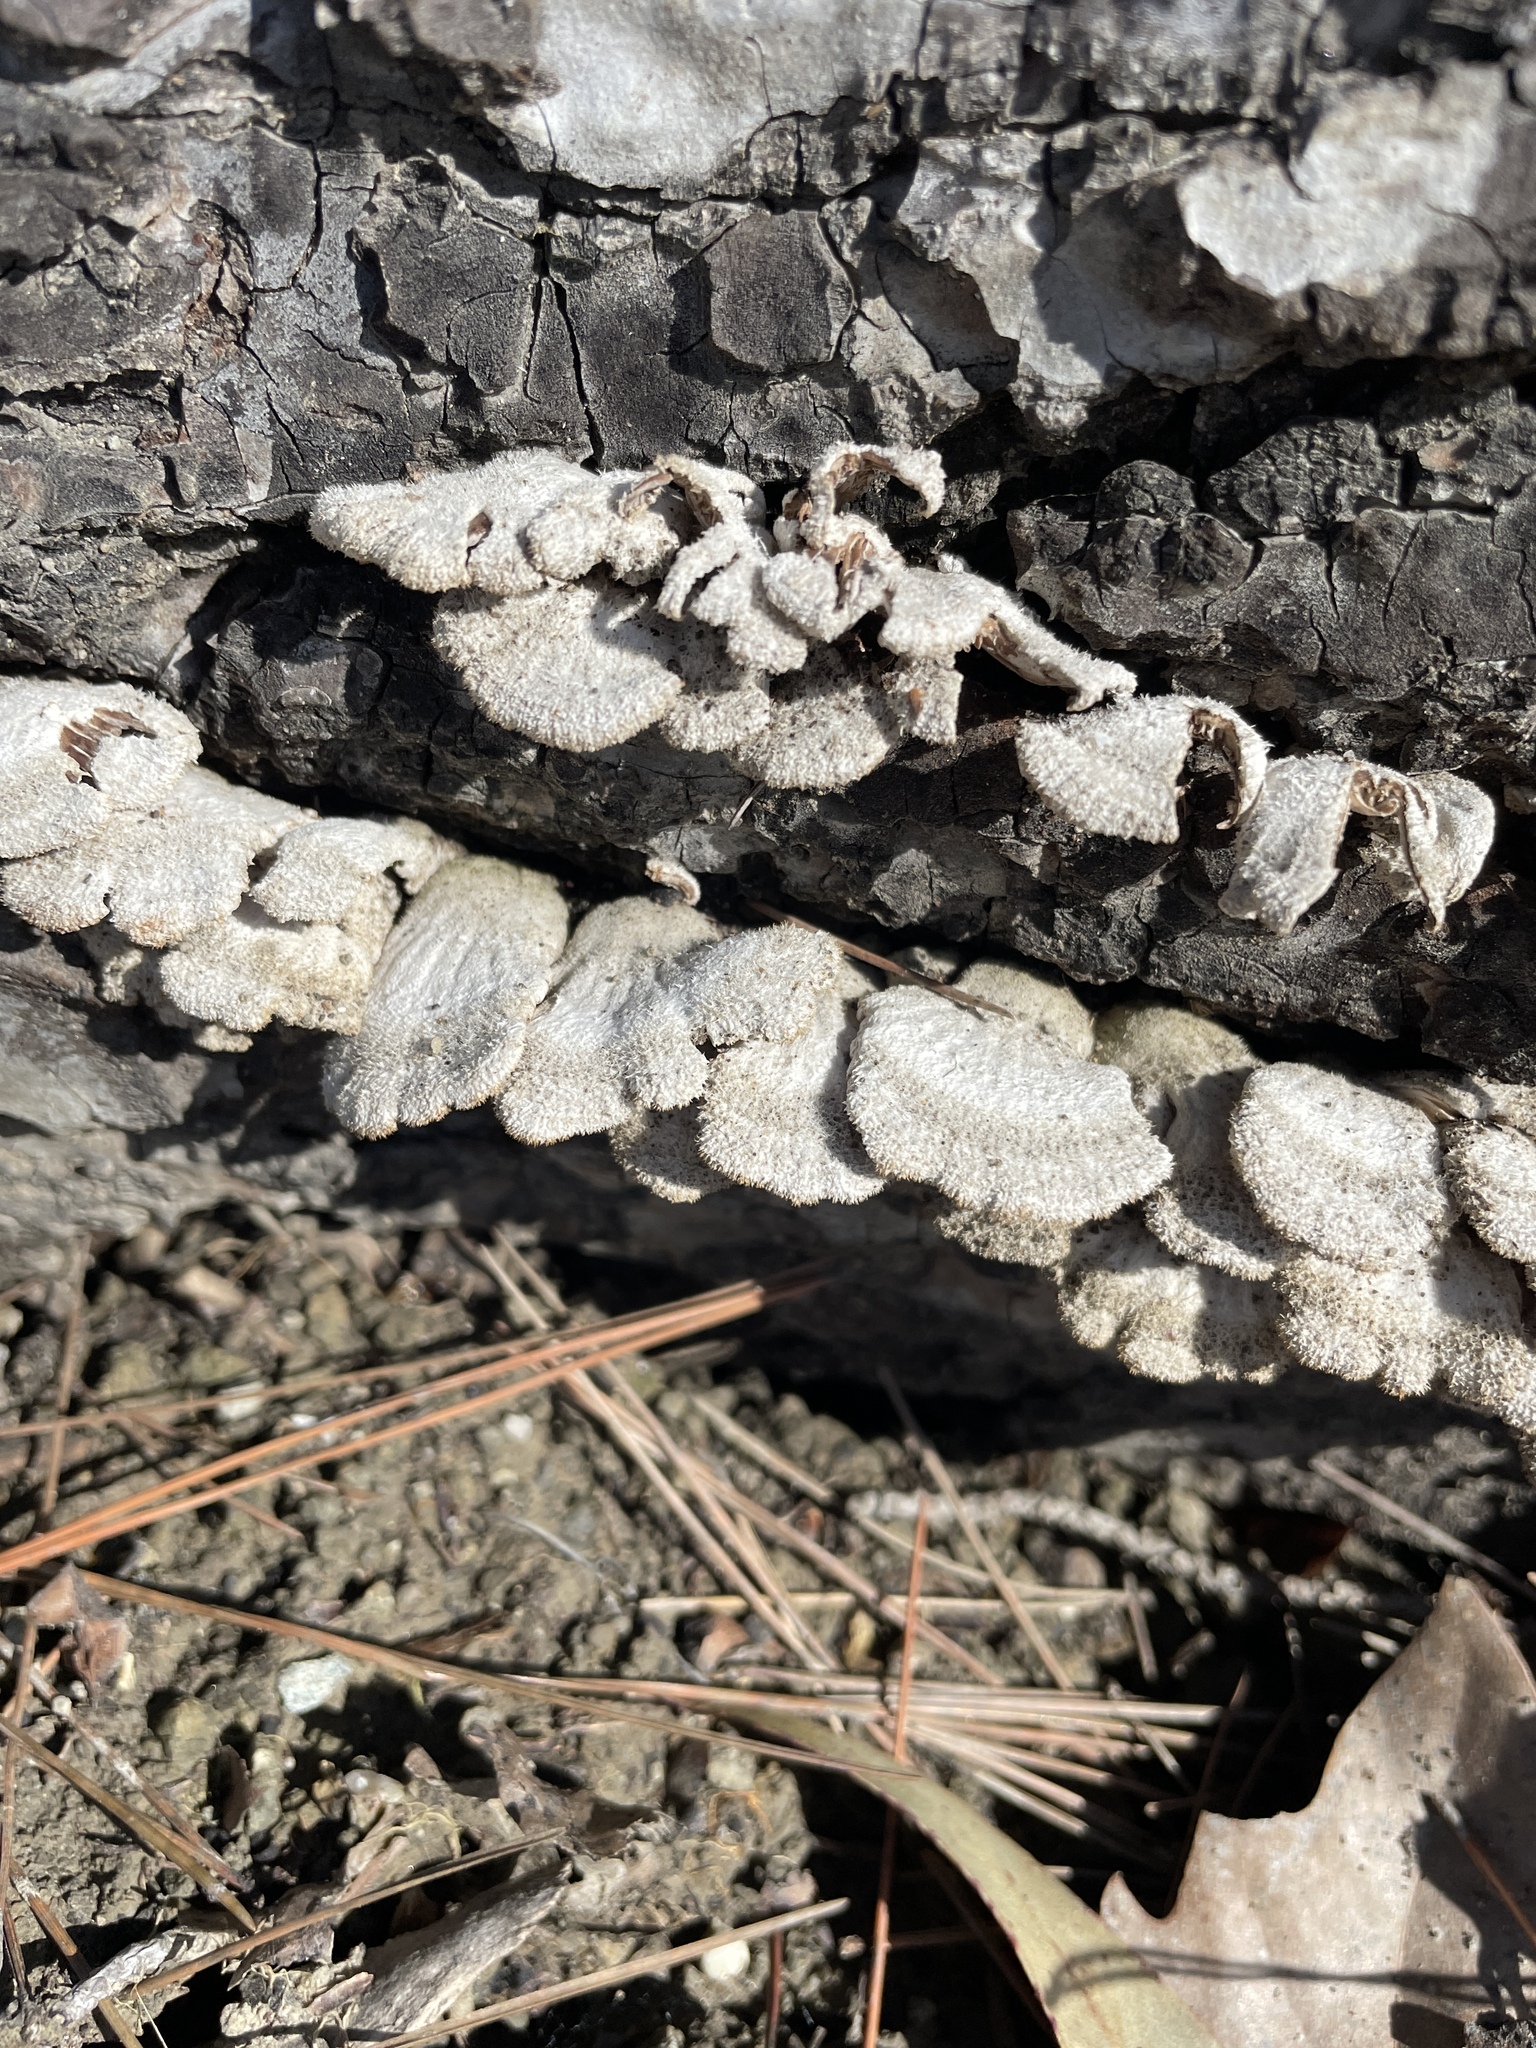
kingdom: Fungi
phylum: Basidiomycota
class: Agaricomycetes
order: Agaricales
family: Schizophyllaceae
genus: Schizophyllum
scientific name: Schizophyllum commune
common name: Common porecrust
